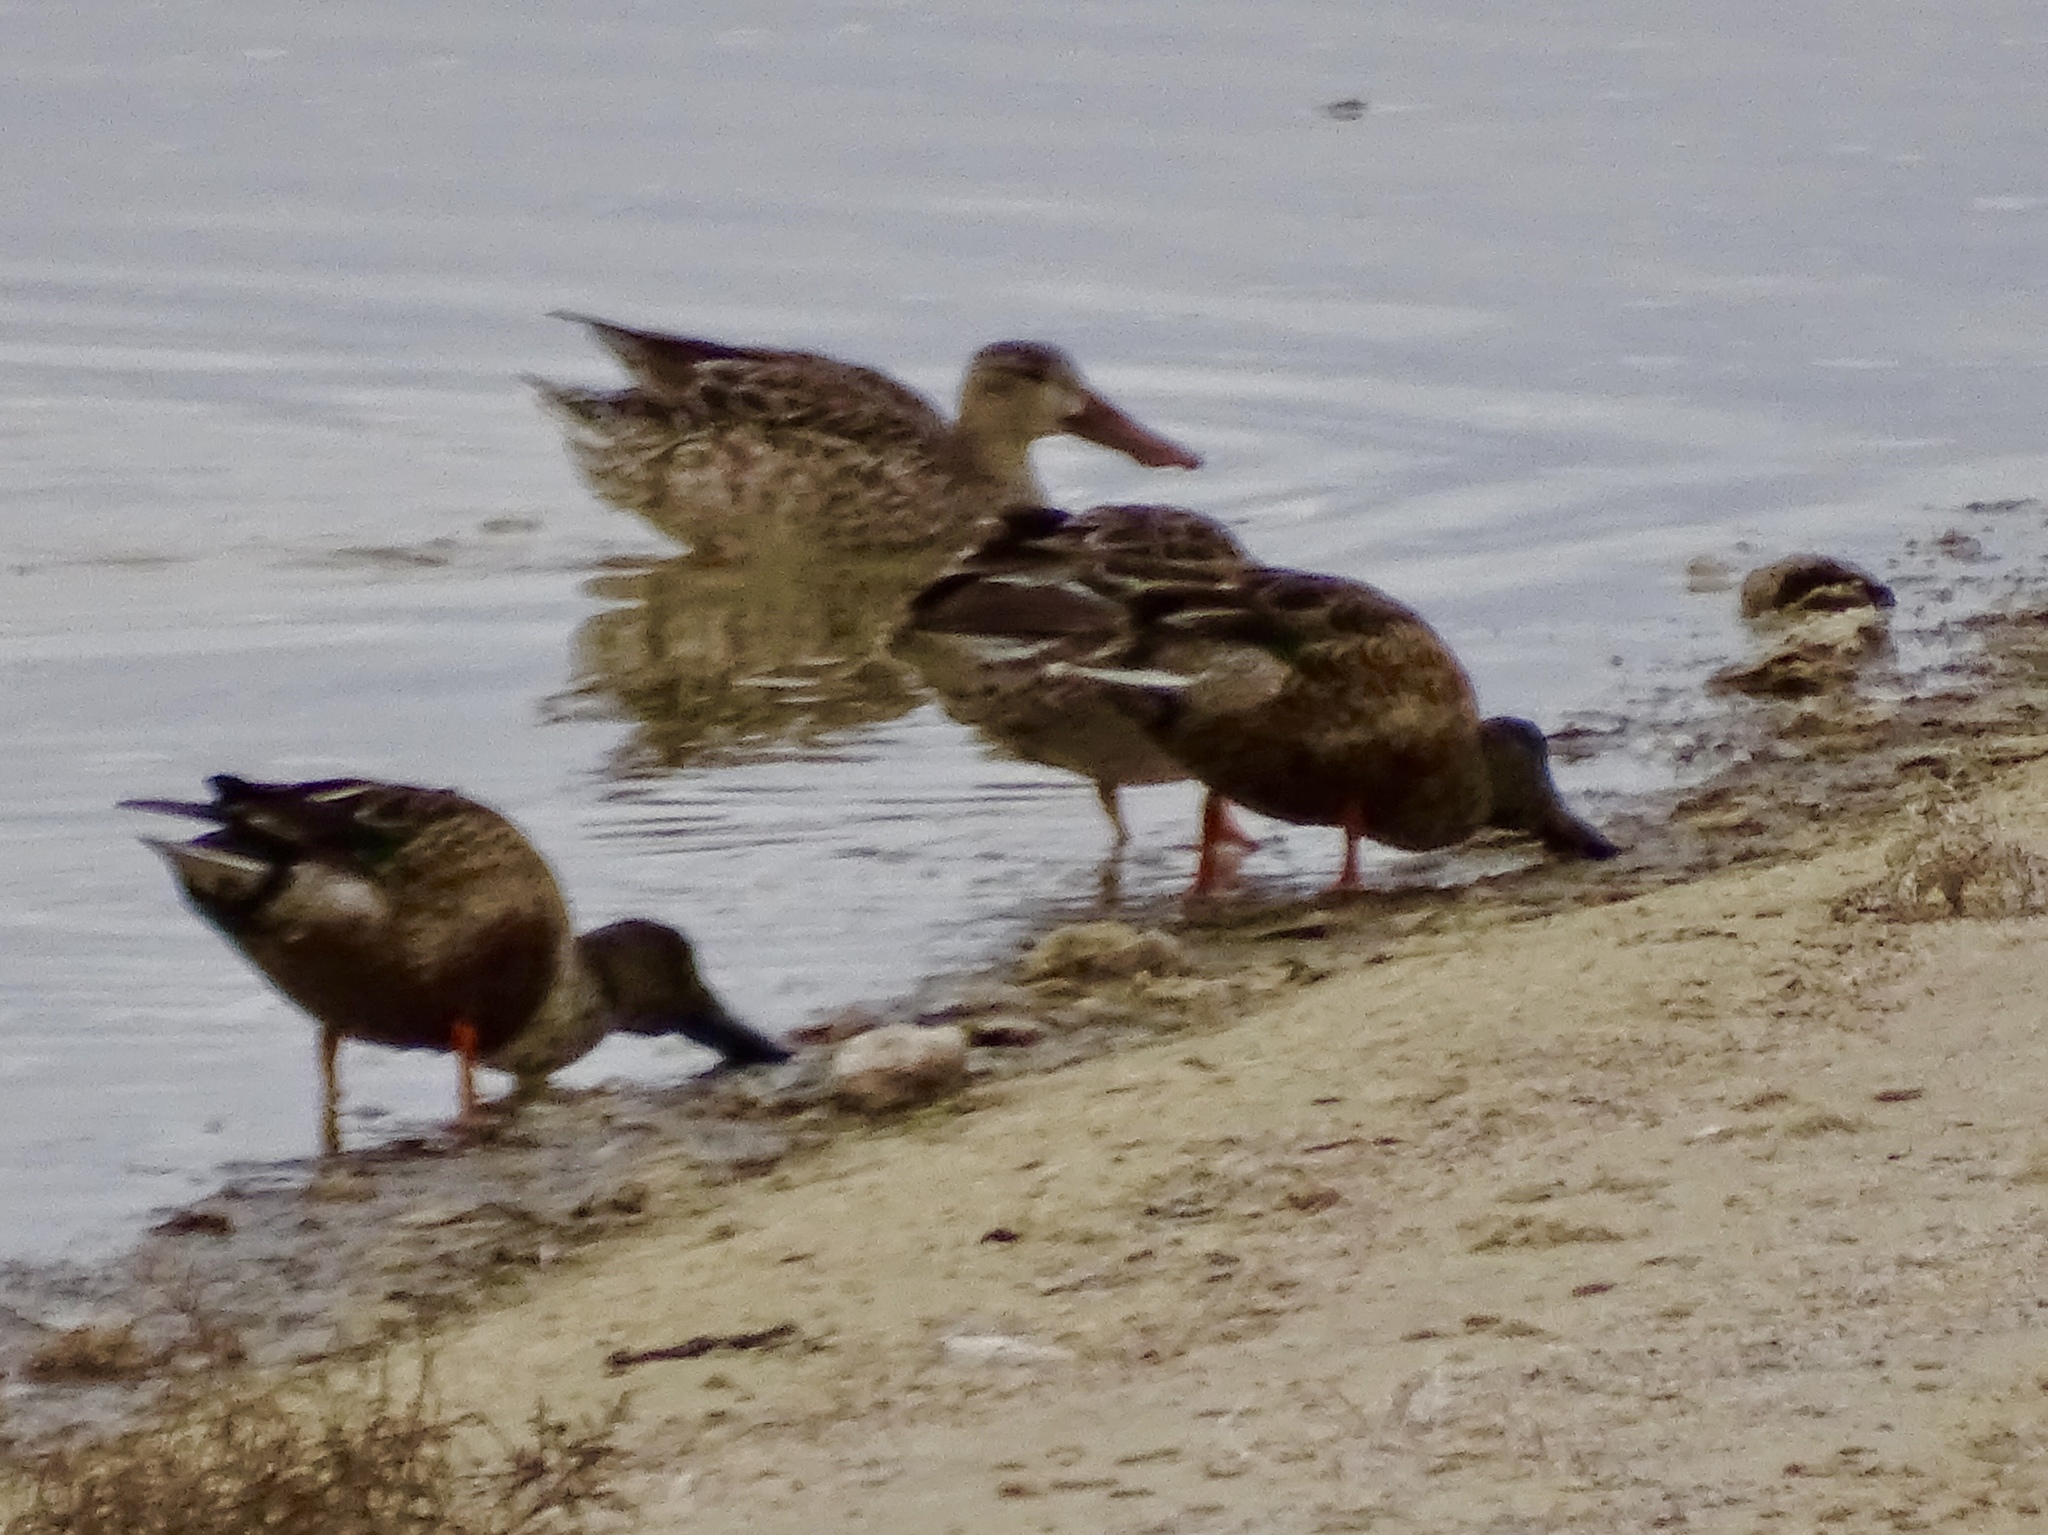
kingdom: Animalia
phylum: Chordata
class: Aves
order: Anseriformes
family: Anatidae
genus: Spatula
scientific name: Spatula clypeata
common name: Northern shoveler
